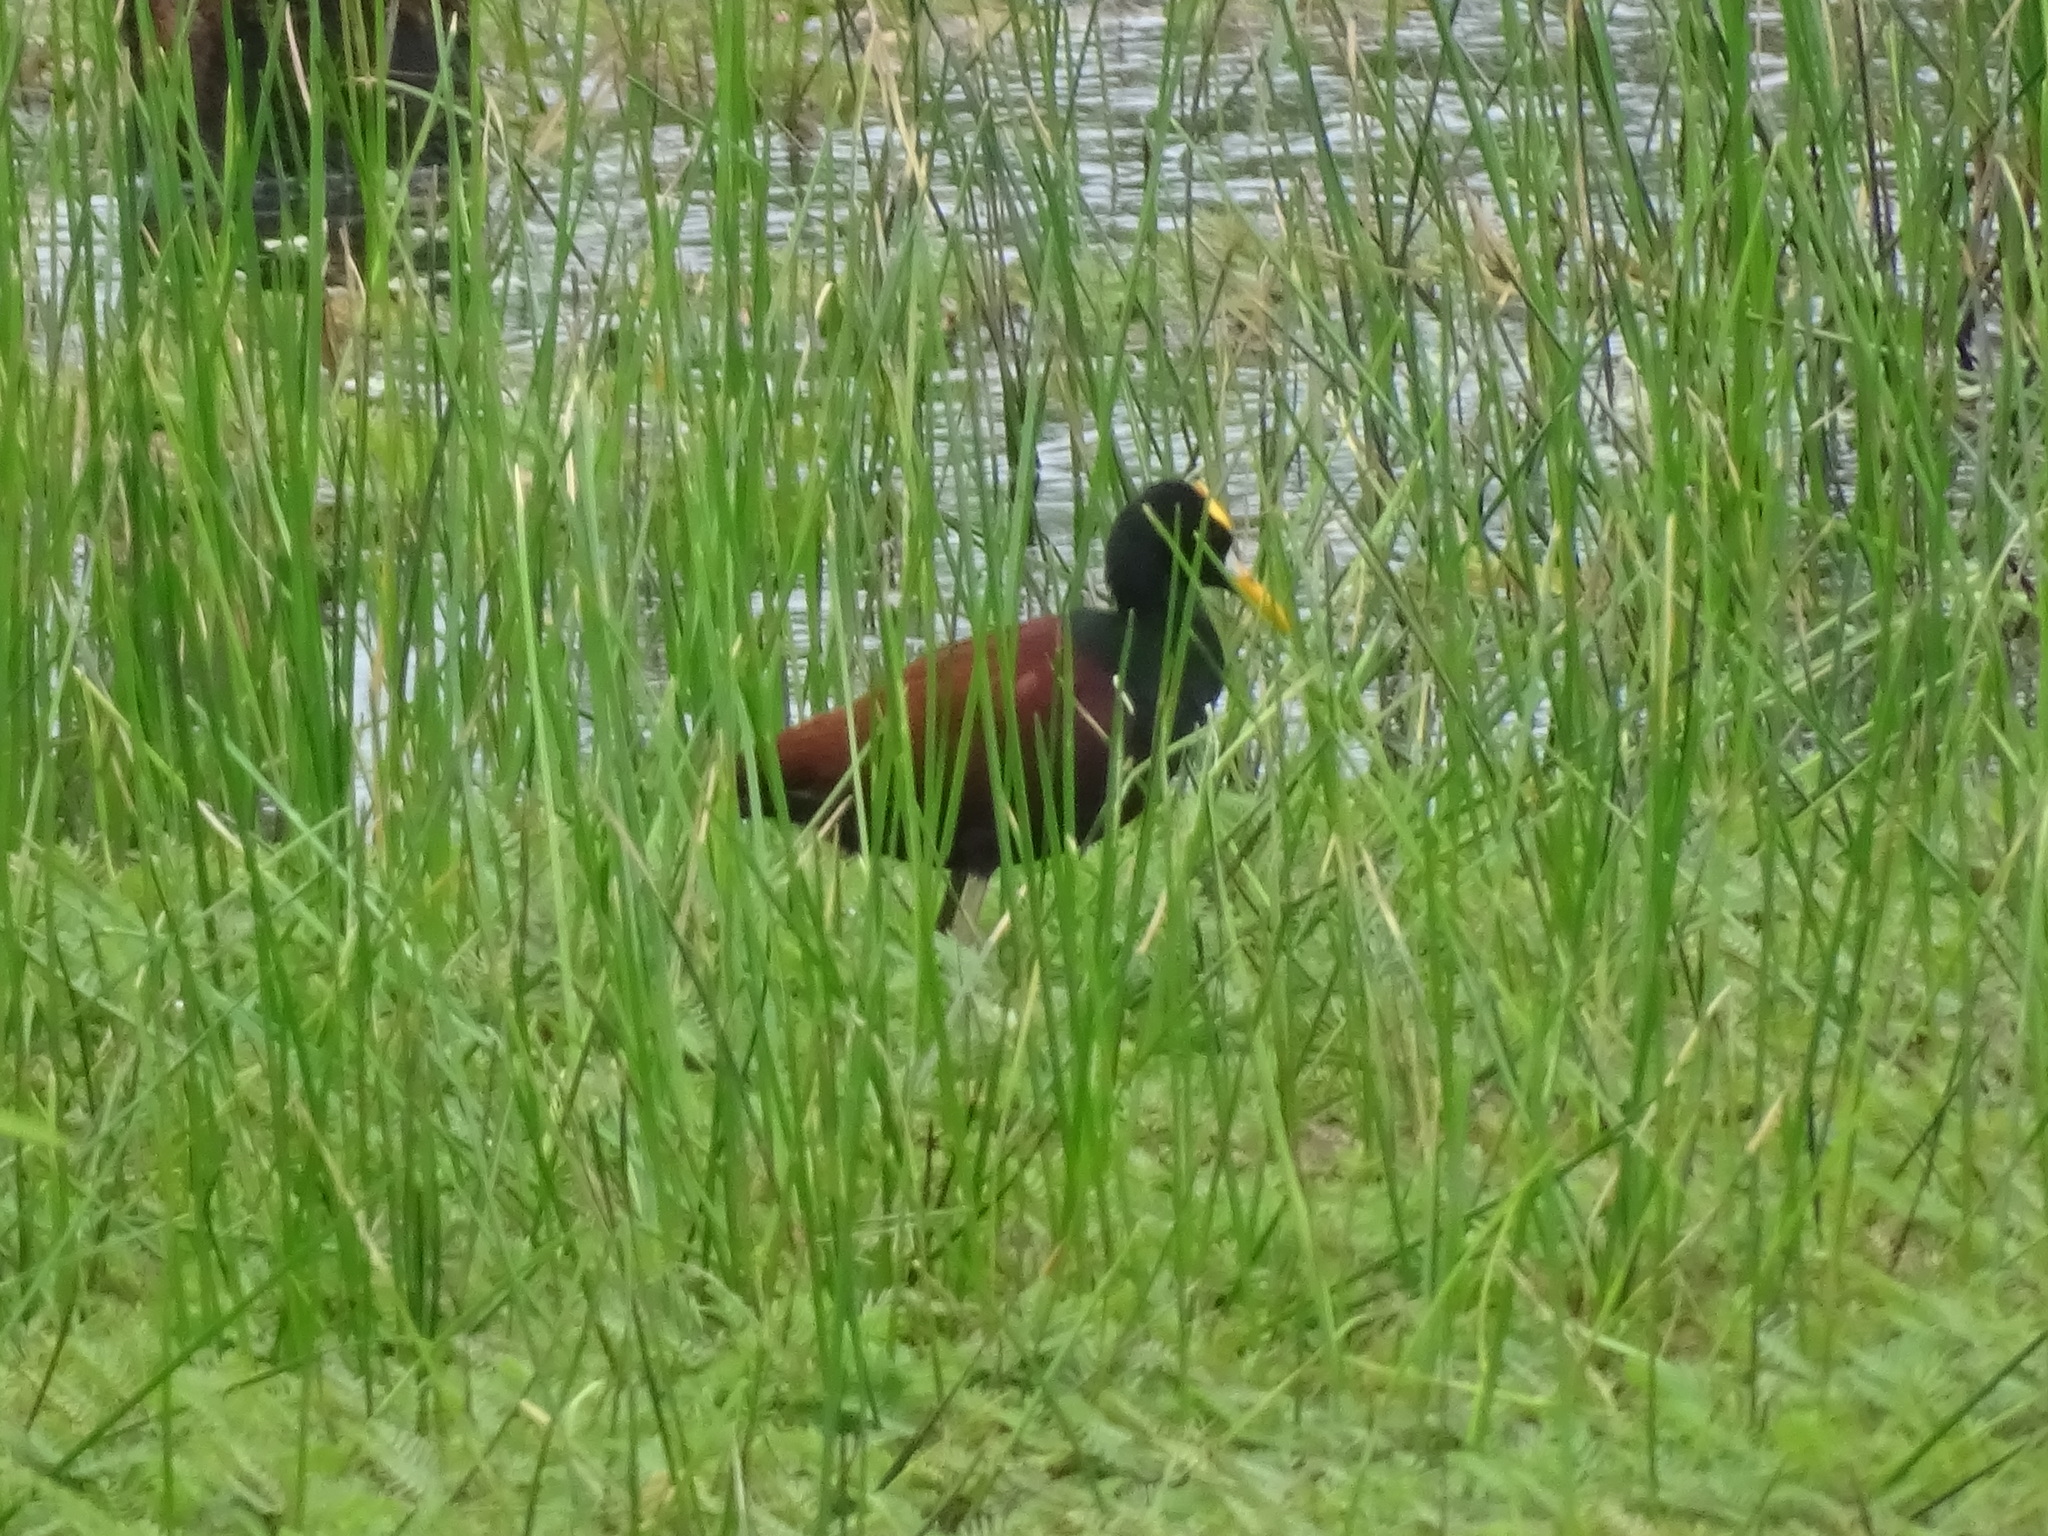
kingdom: Animalia
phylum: Chordata
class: Aves
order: Charadriiformes
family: Jacanidae
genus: Jacana
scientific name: Jacana spinosa
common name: Northern jacana
